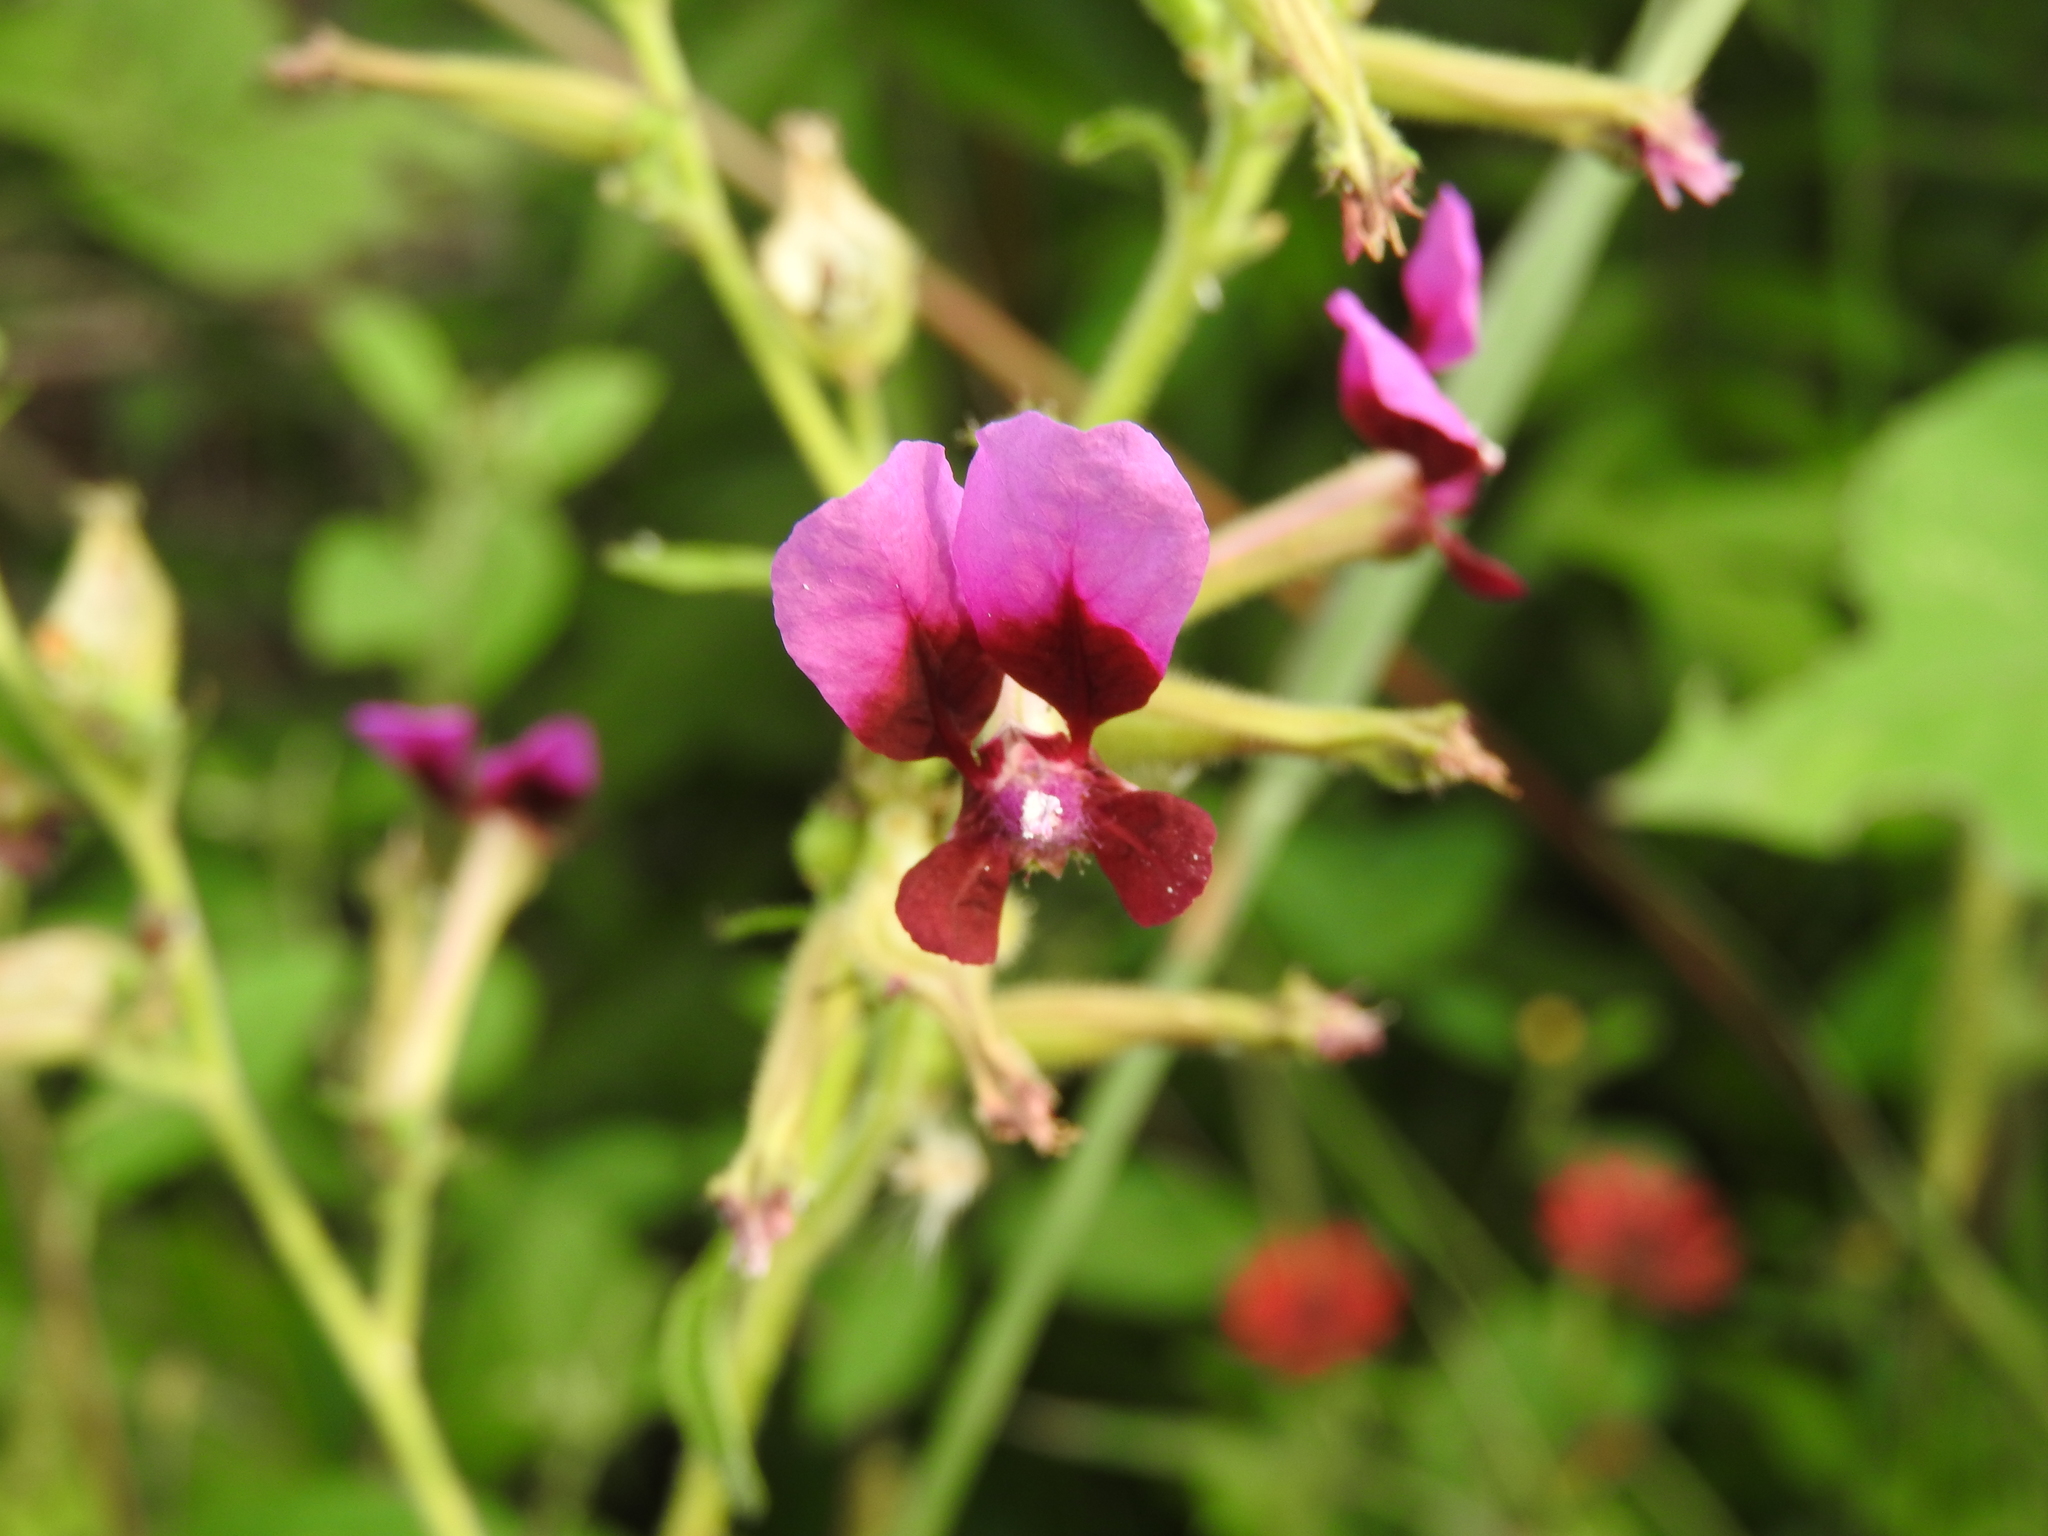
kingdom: Plantae
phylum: Tracheophyta
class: Magnoliopsida
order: Myrtales
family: Lythraceae
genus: Cuphea
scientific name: Cuphea koehneana
